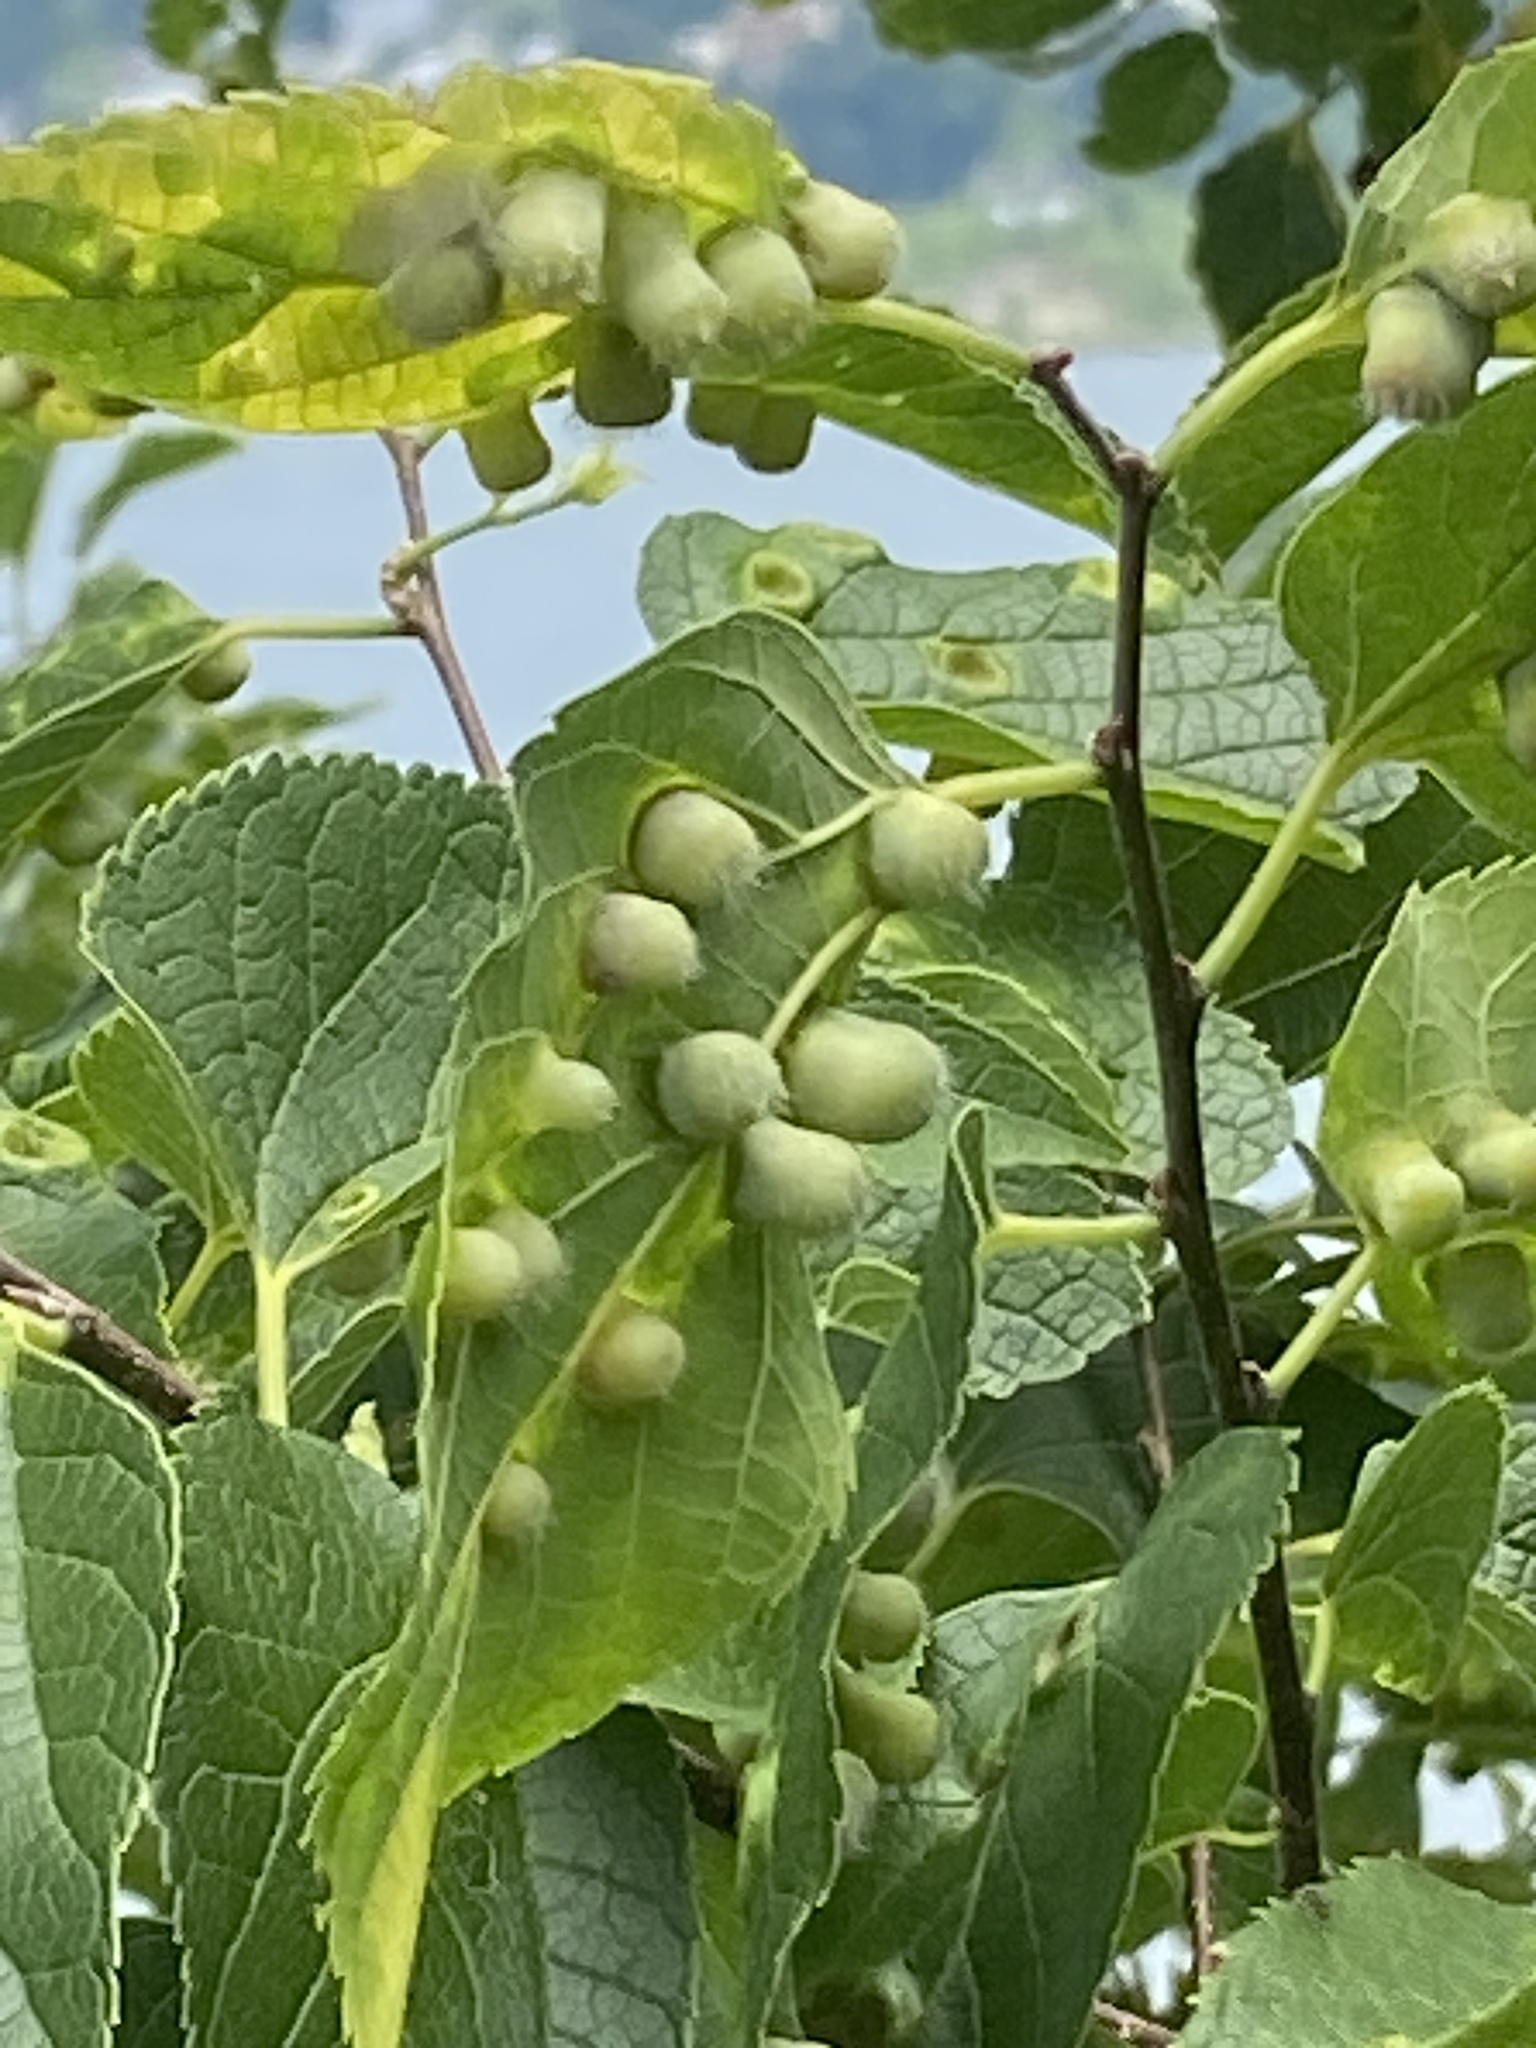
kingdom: Animalia
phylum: Arthropoda
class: Insecta
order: Hemiptera
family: Aphalaridae
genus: Pachypsylla
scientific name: Pachypsylla celtidismamma
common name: Hackberry nipplegall psyllid
